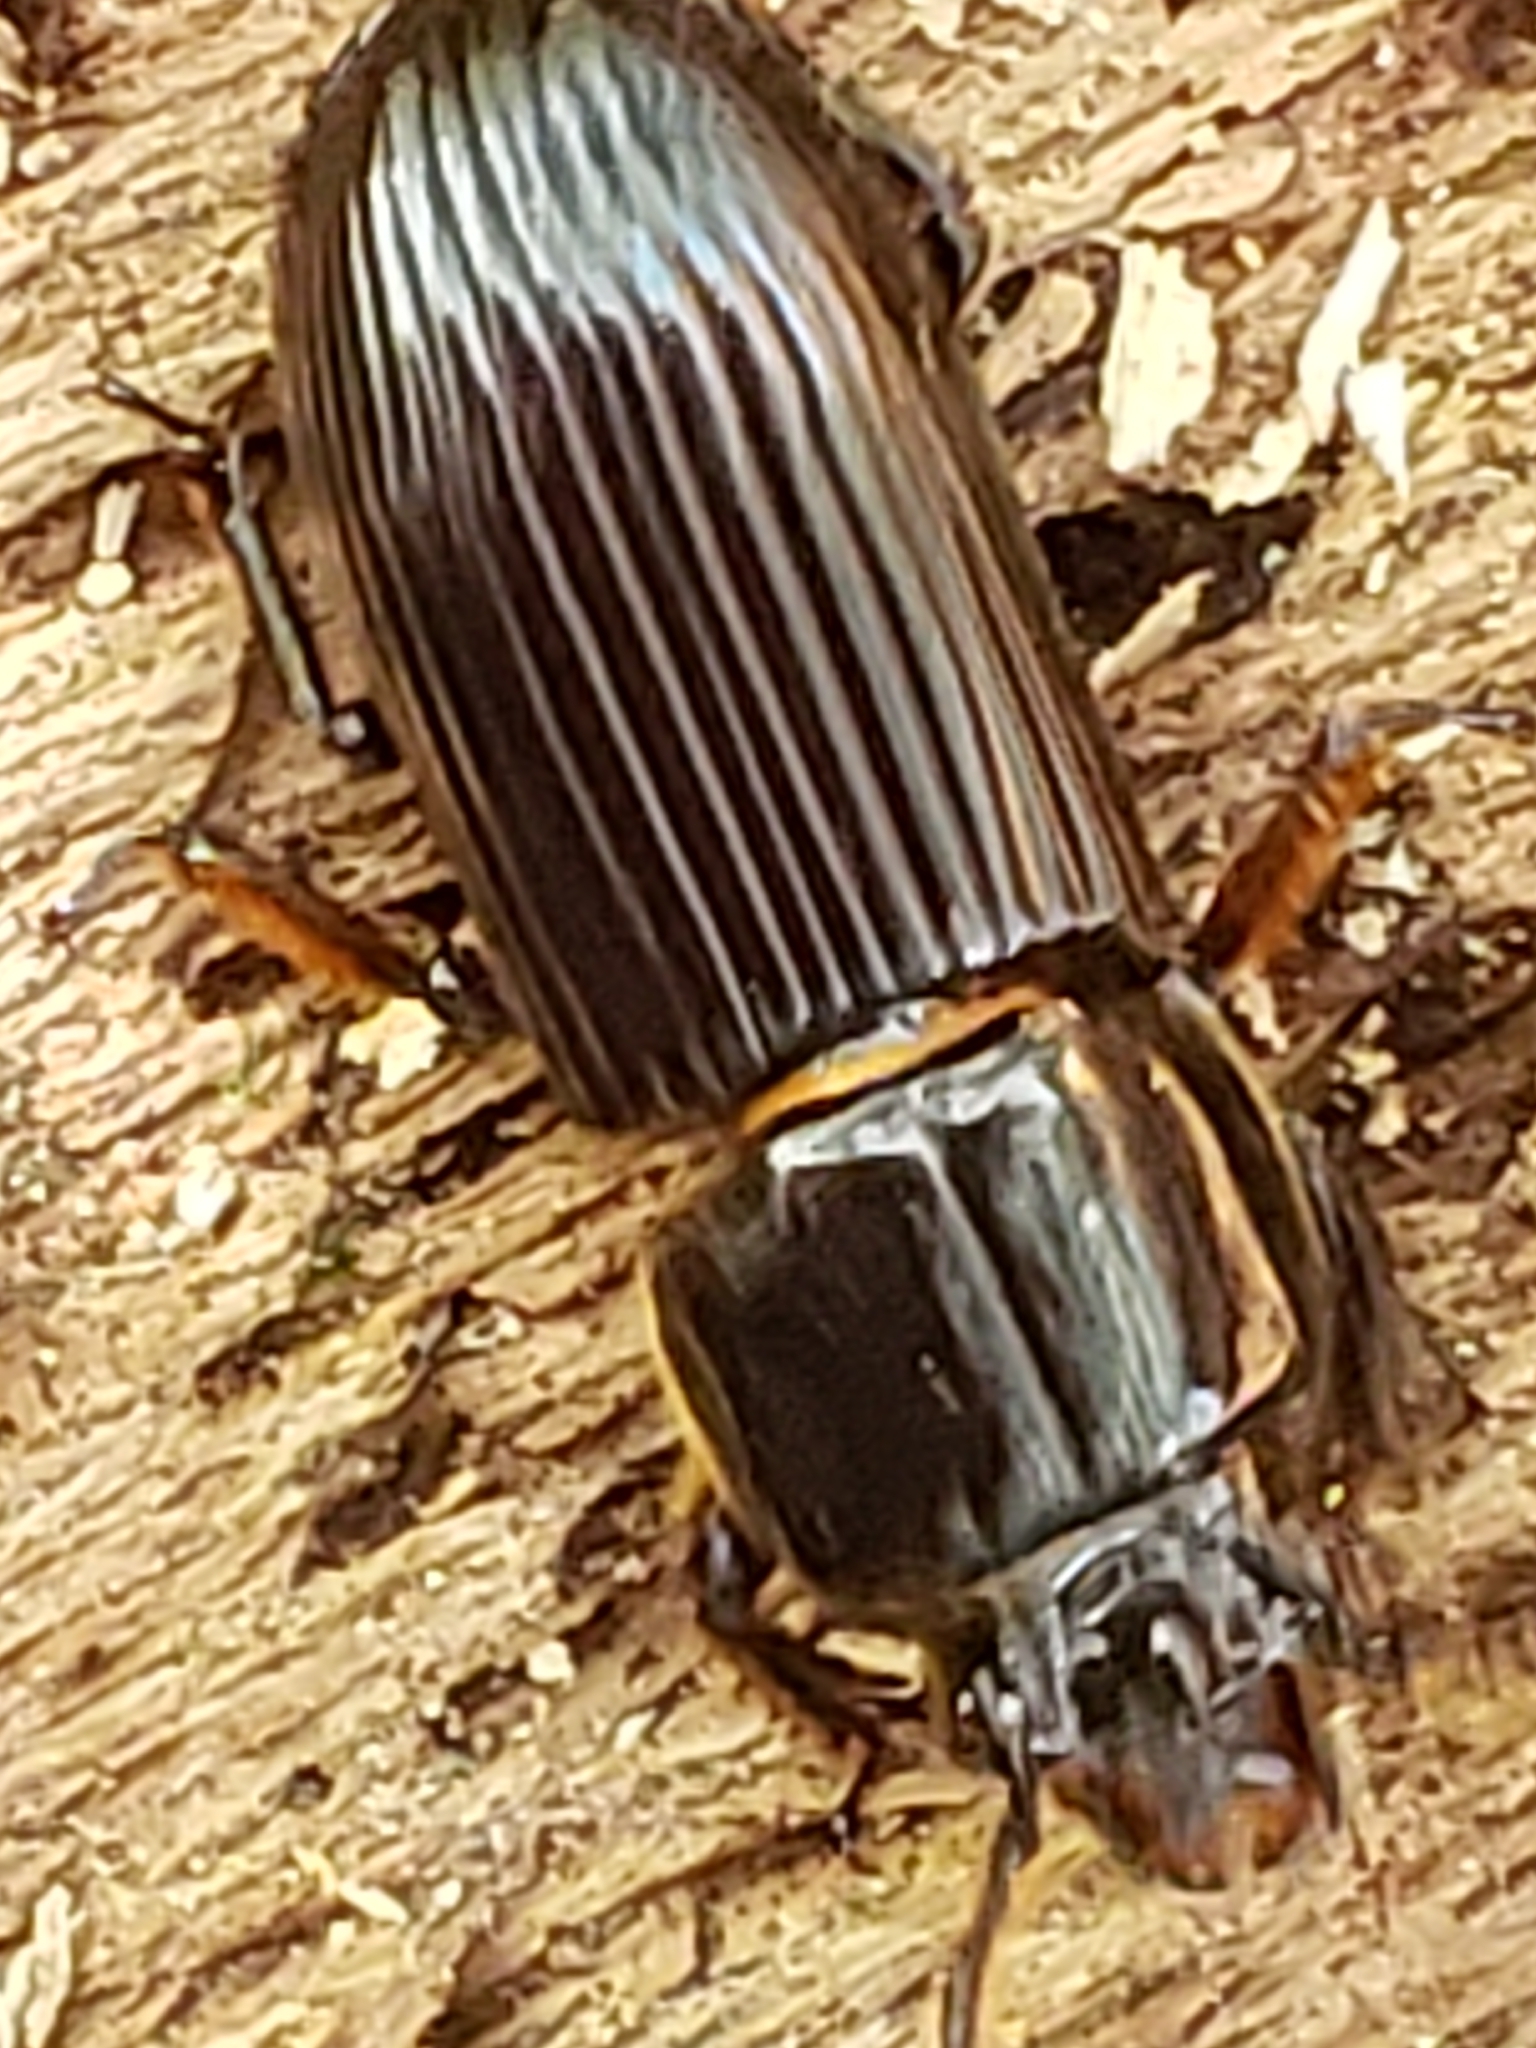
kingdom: Animalia
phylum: Arthropoda
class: Insecta
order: Coleoptera
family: Passalidae
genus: Odontotaenius
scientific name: Odontotaenius disjunctus
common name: Patent leather beetle
